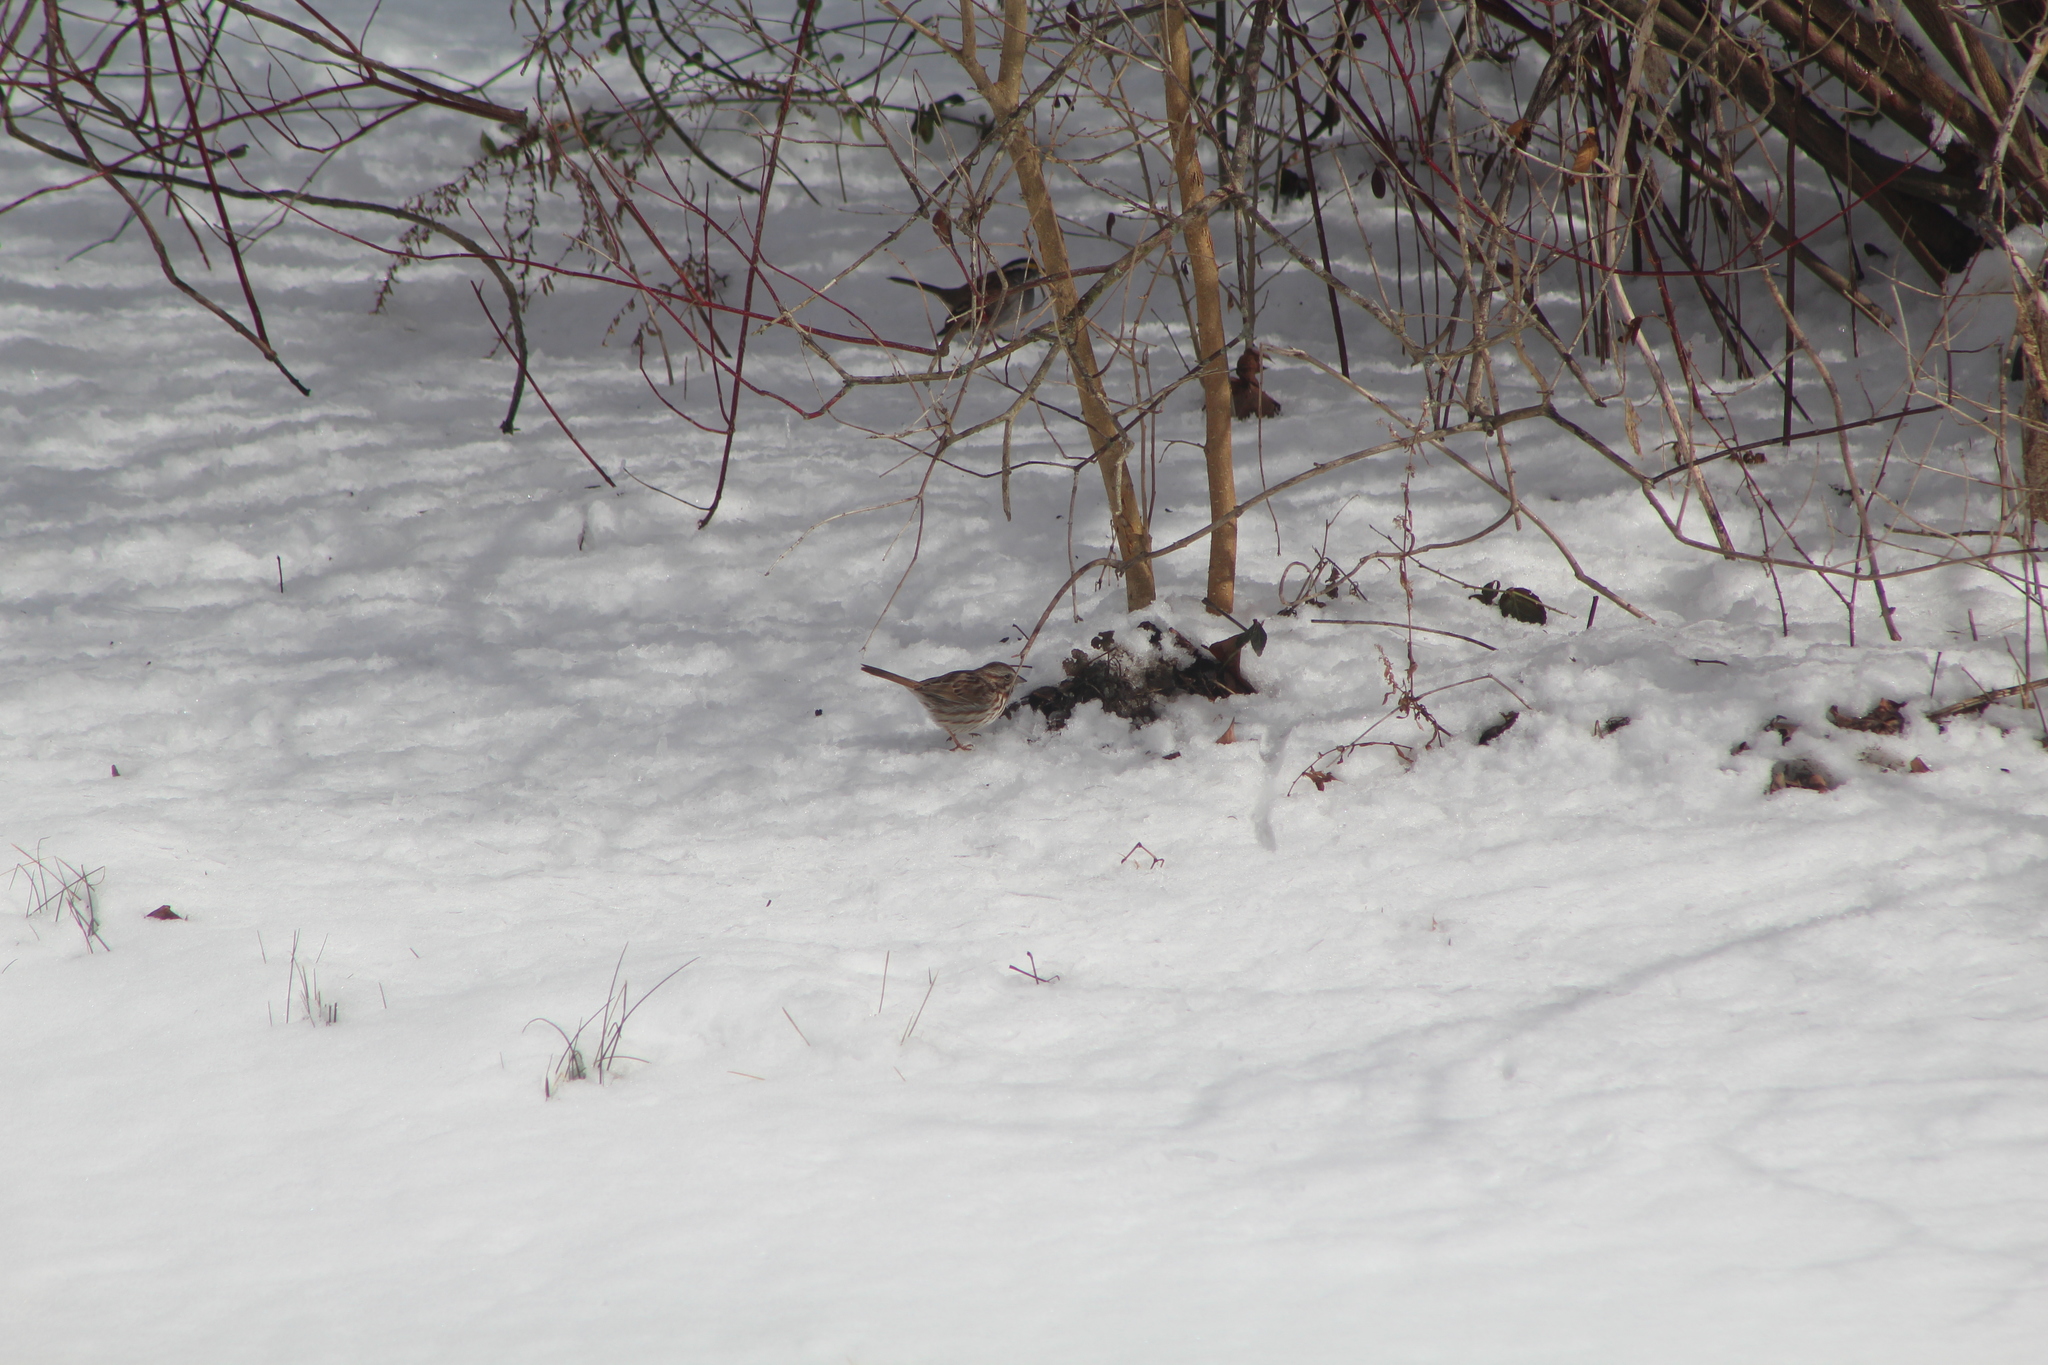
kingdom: Animalia
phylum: Chordata
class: Aves
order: Passeriformes
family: Passerellidae
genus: Melospiza
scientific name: Melospiza melodia
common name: Song sparrow
